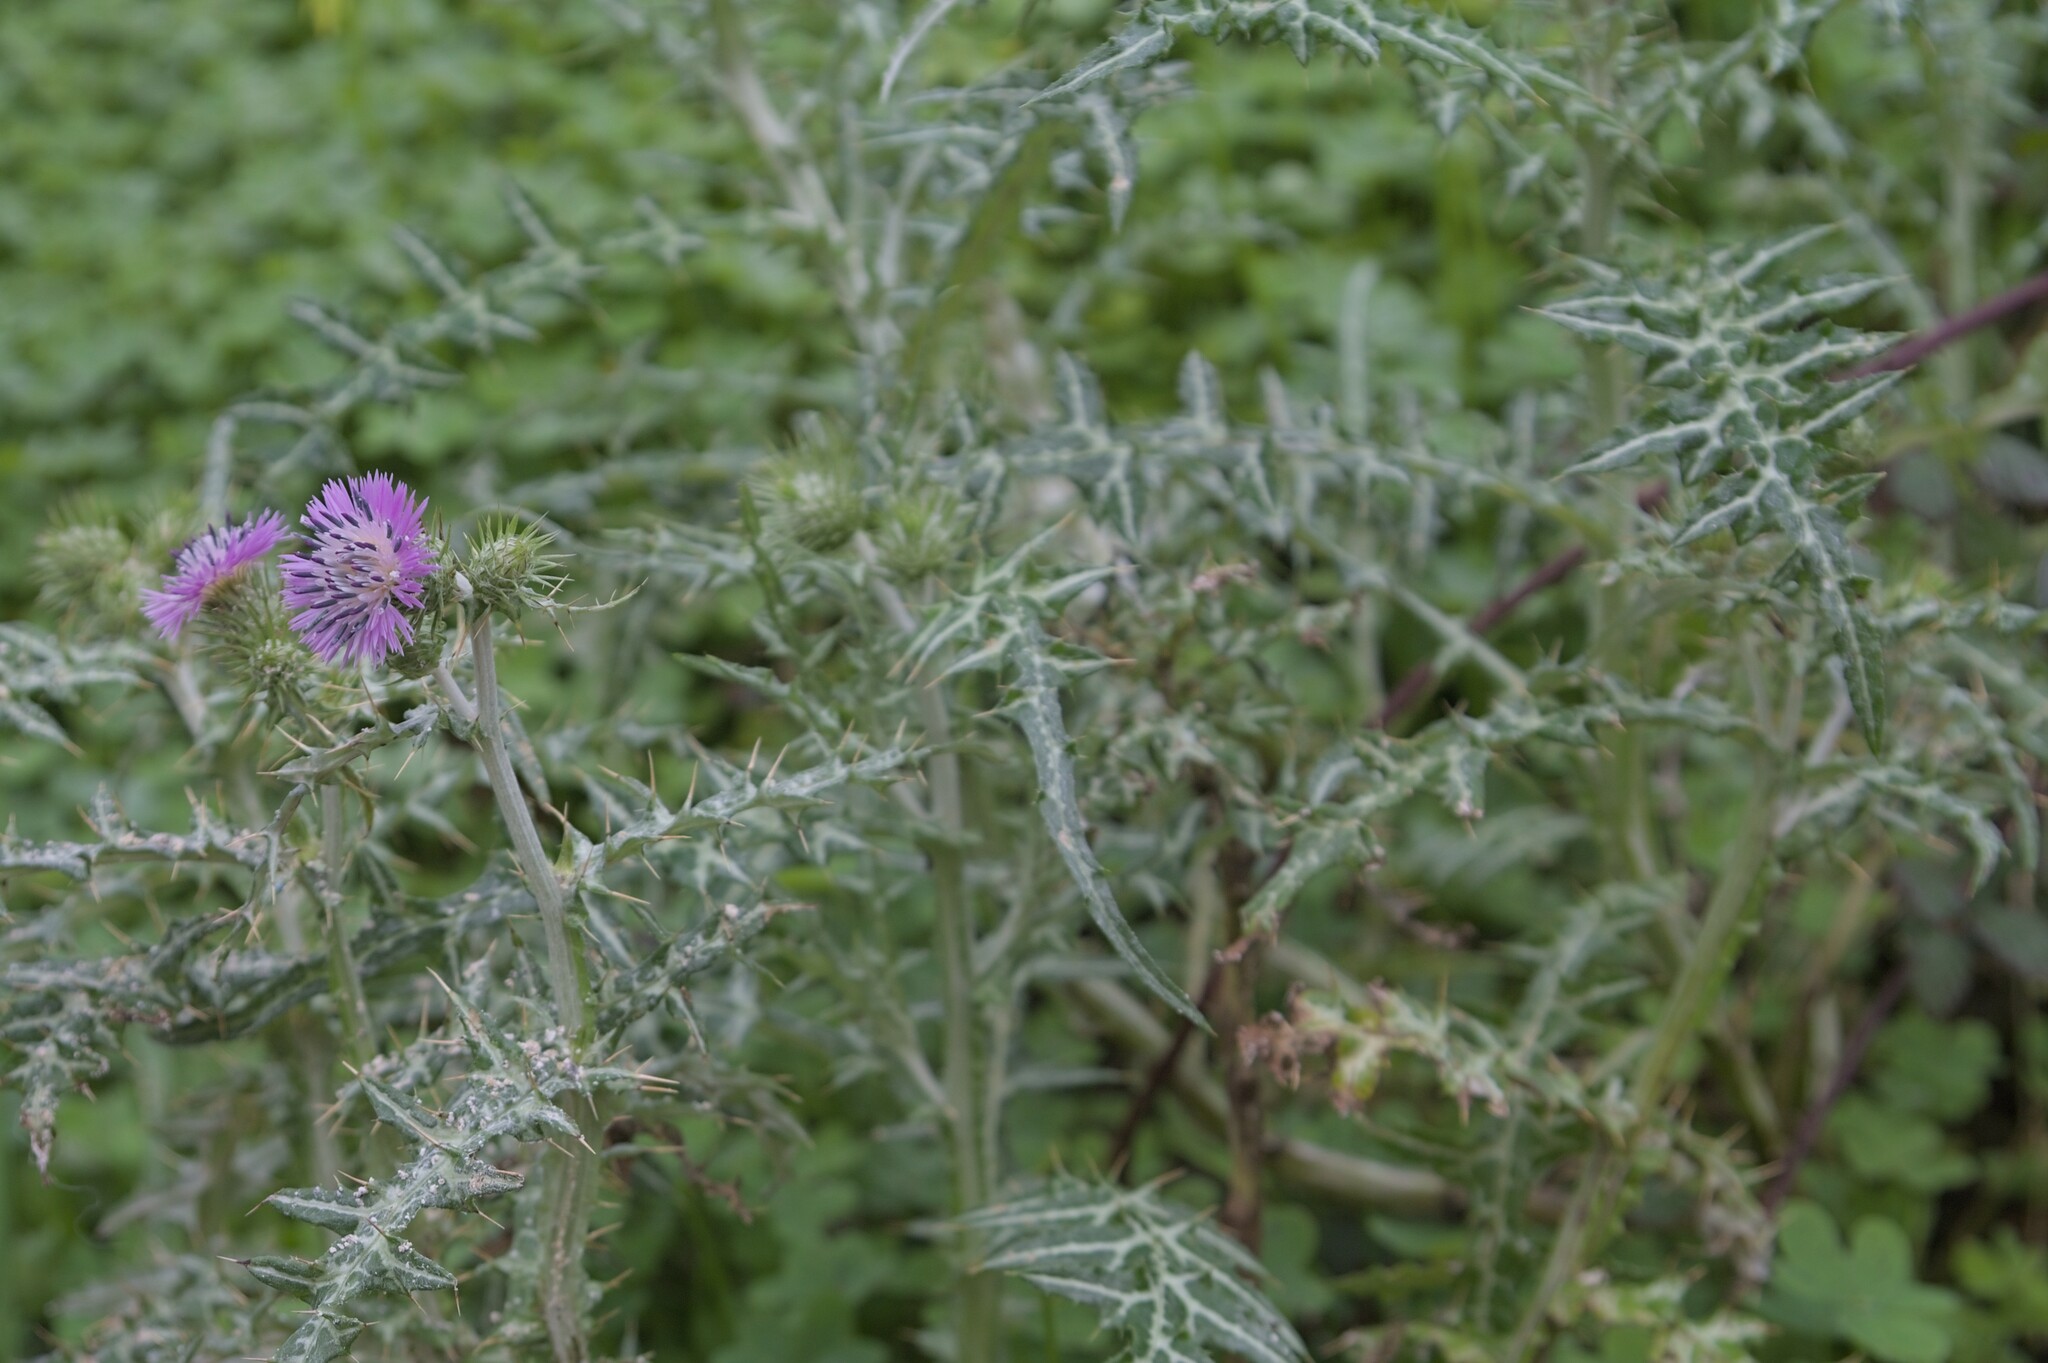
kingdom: Plantae
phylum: Tracheophyta
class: Magnoliopsida
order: Asterales
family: Asteraceae
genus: Galactites
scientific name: Galactites tomentosa
